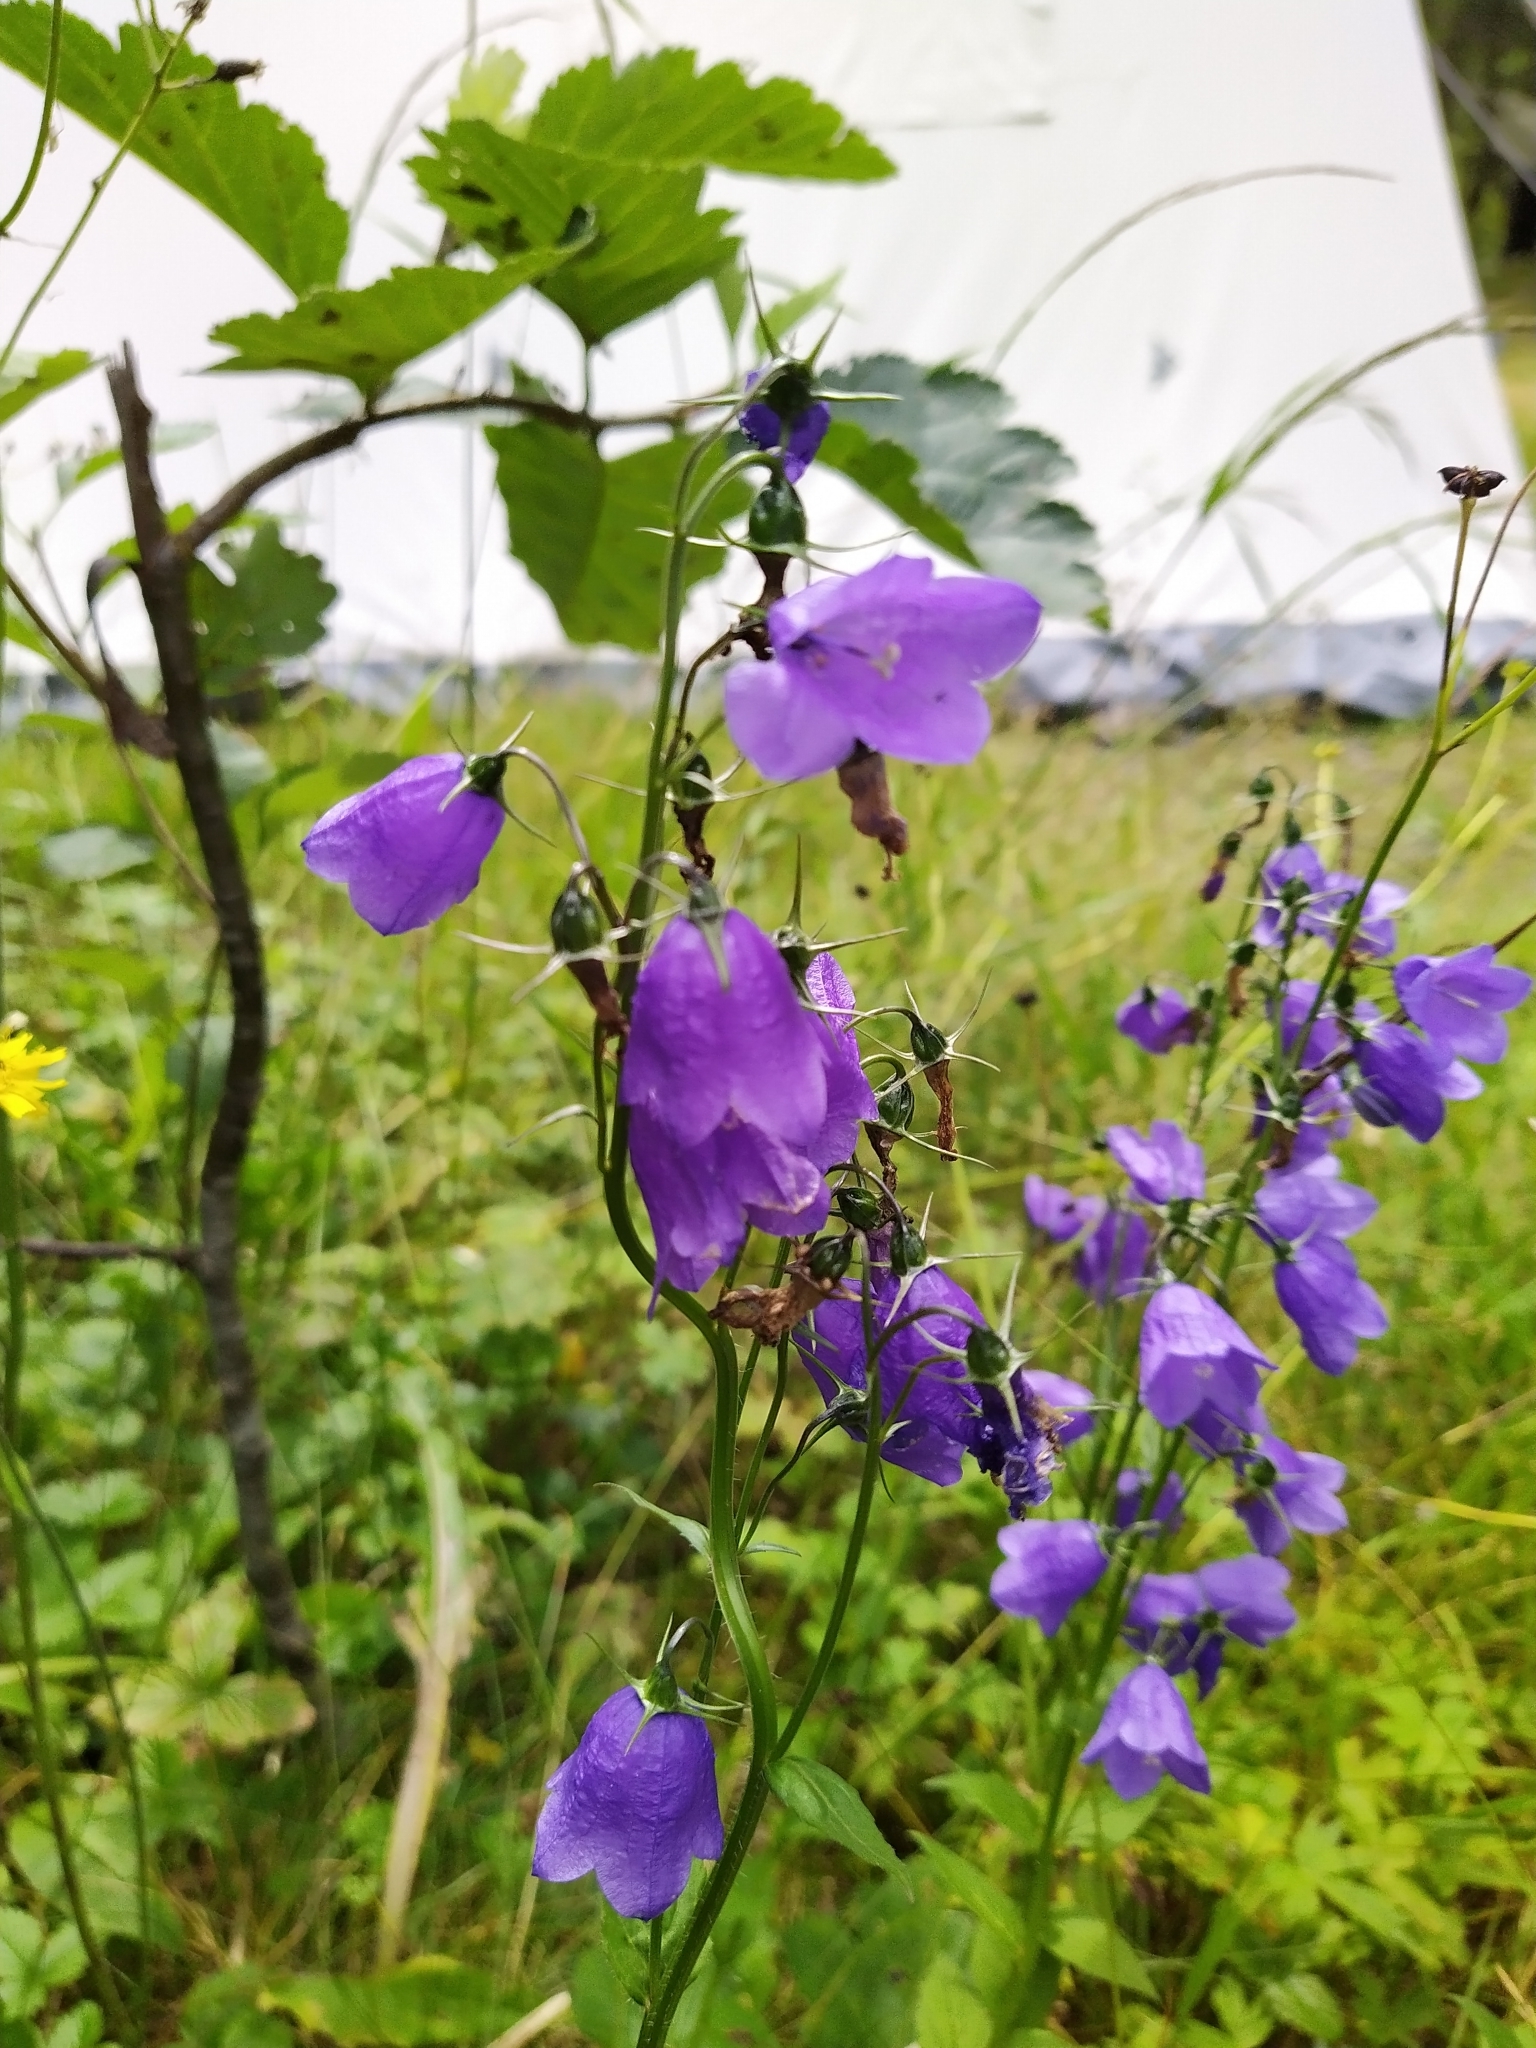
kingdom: Plantae
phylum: Tracheophyta
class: Magnoliopsida
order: Asterales
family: Campanulaceae
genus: Campanula
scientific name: Campanula rhomboidalis
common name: Broad-leaved harebell
